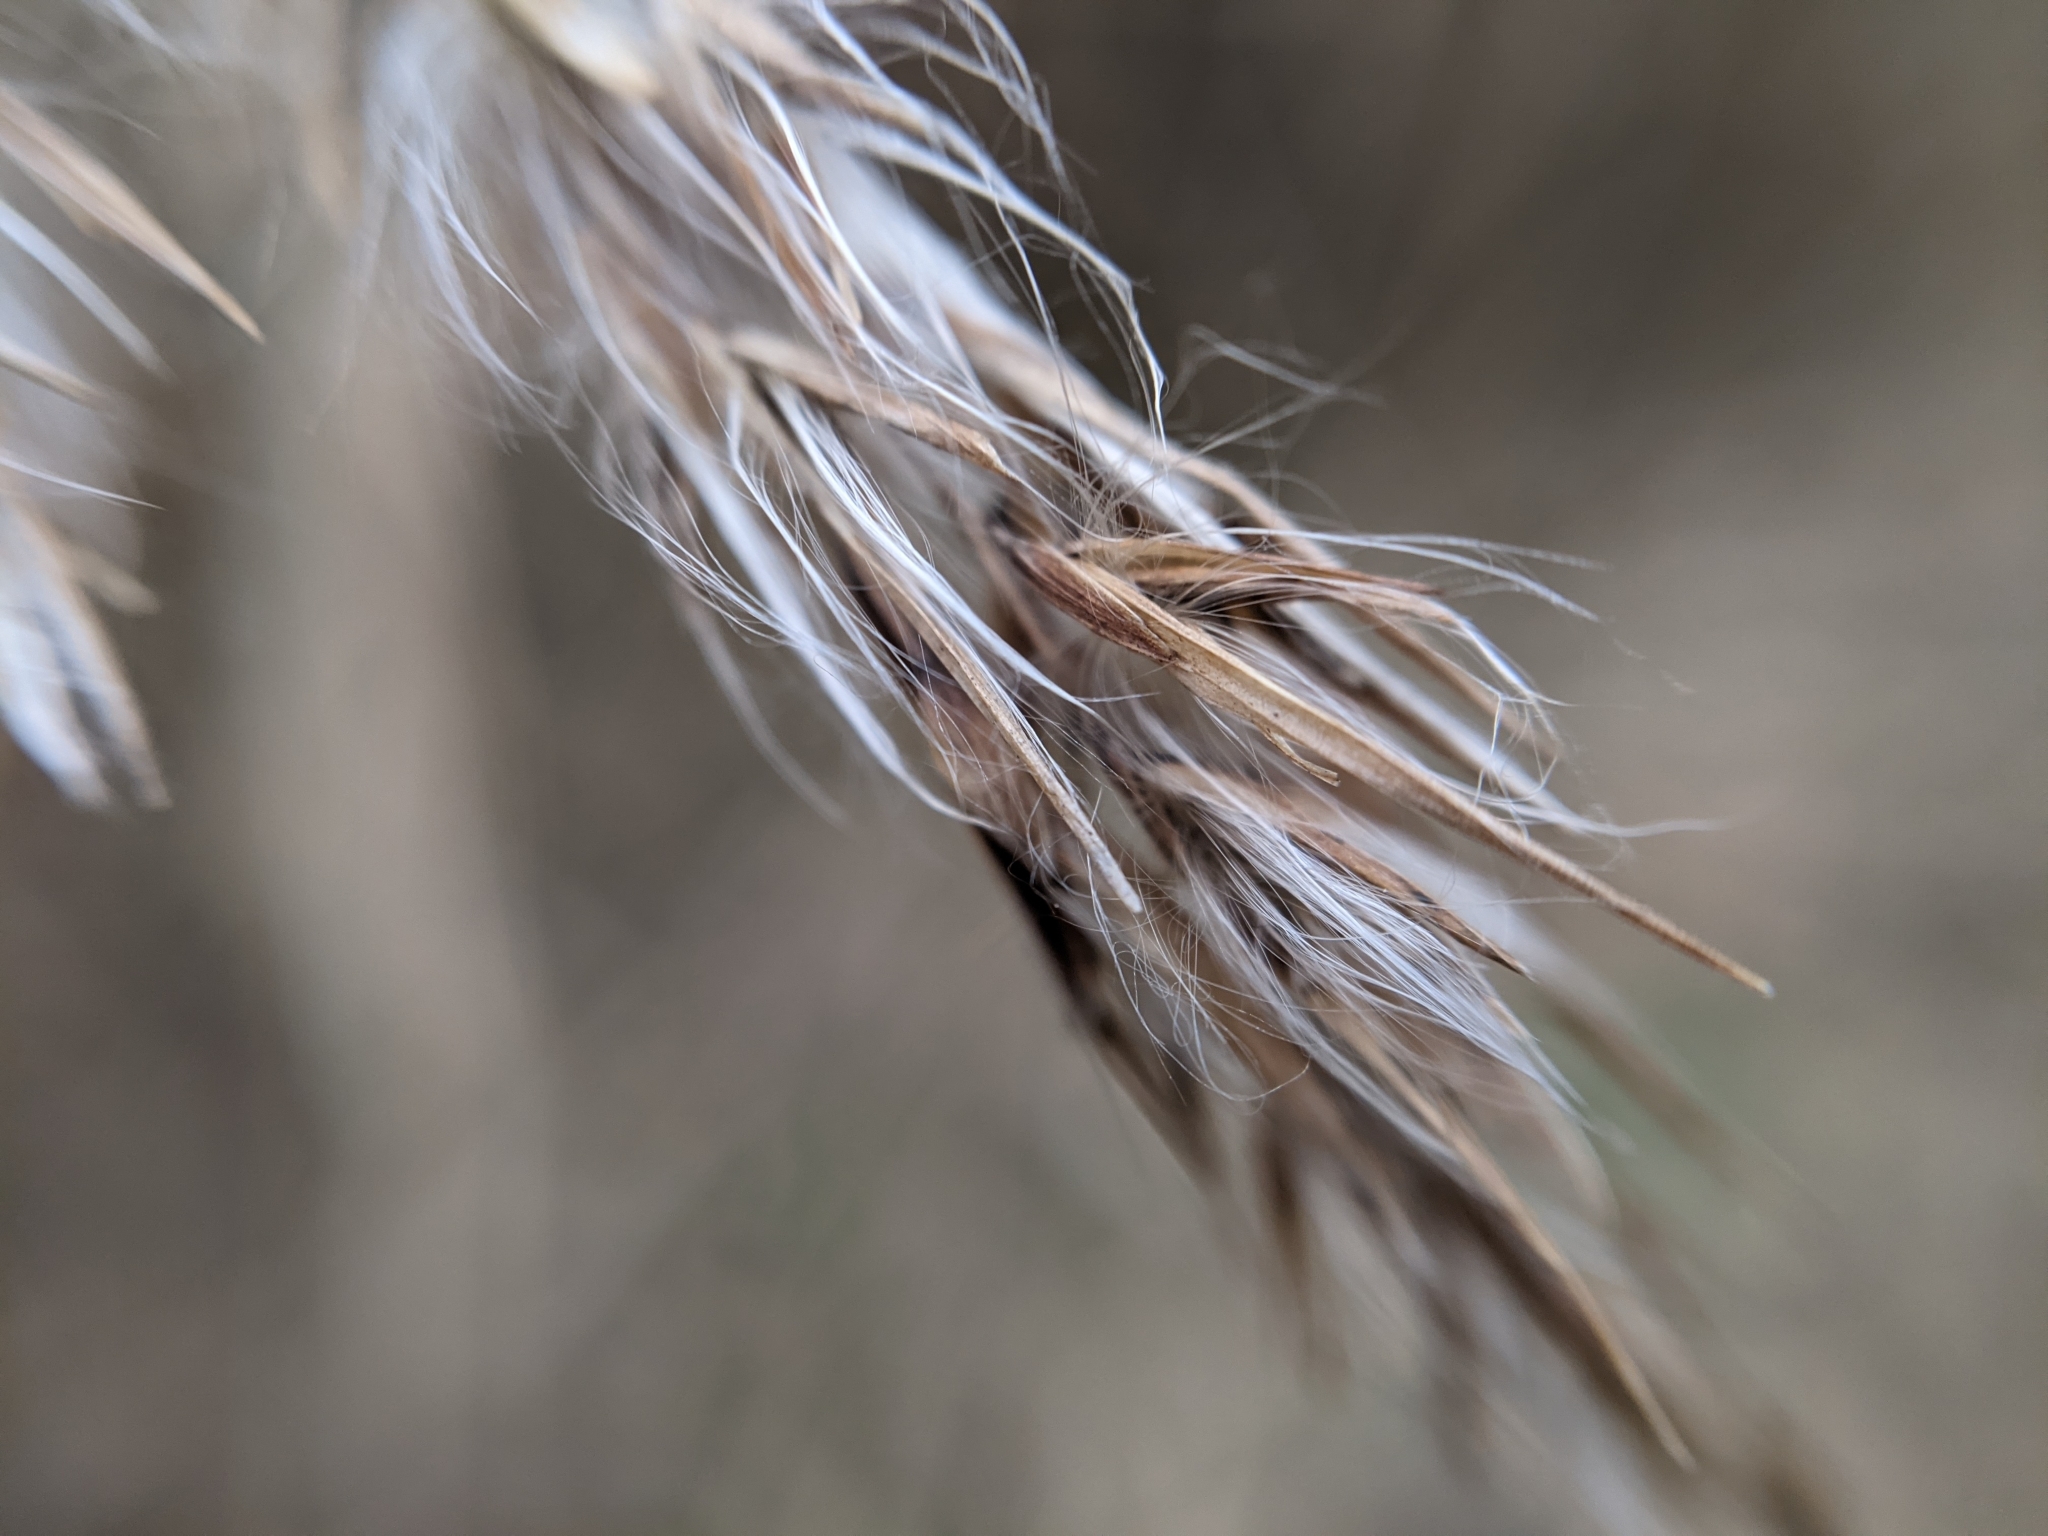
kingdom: Plantae
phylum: Tracheophyta
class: Liliopsida
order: Poales
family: Poaceae
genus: Phragmites
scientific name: Phragmites australis
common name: Common reed
